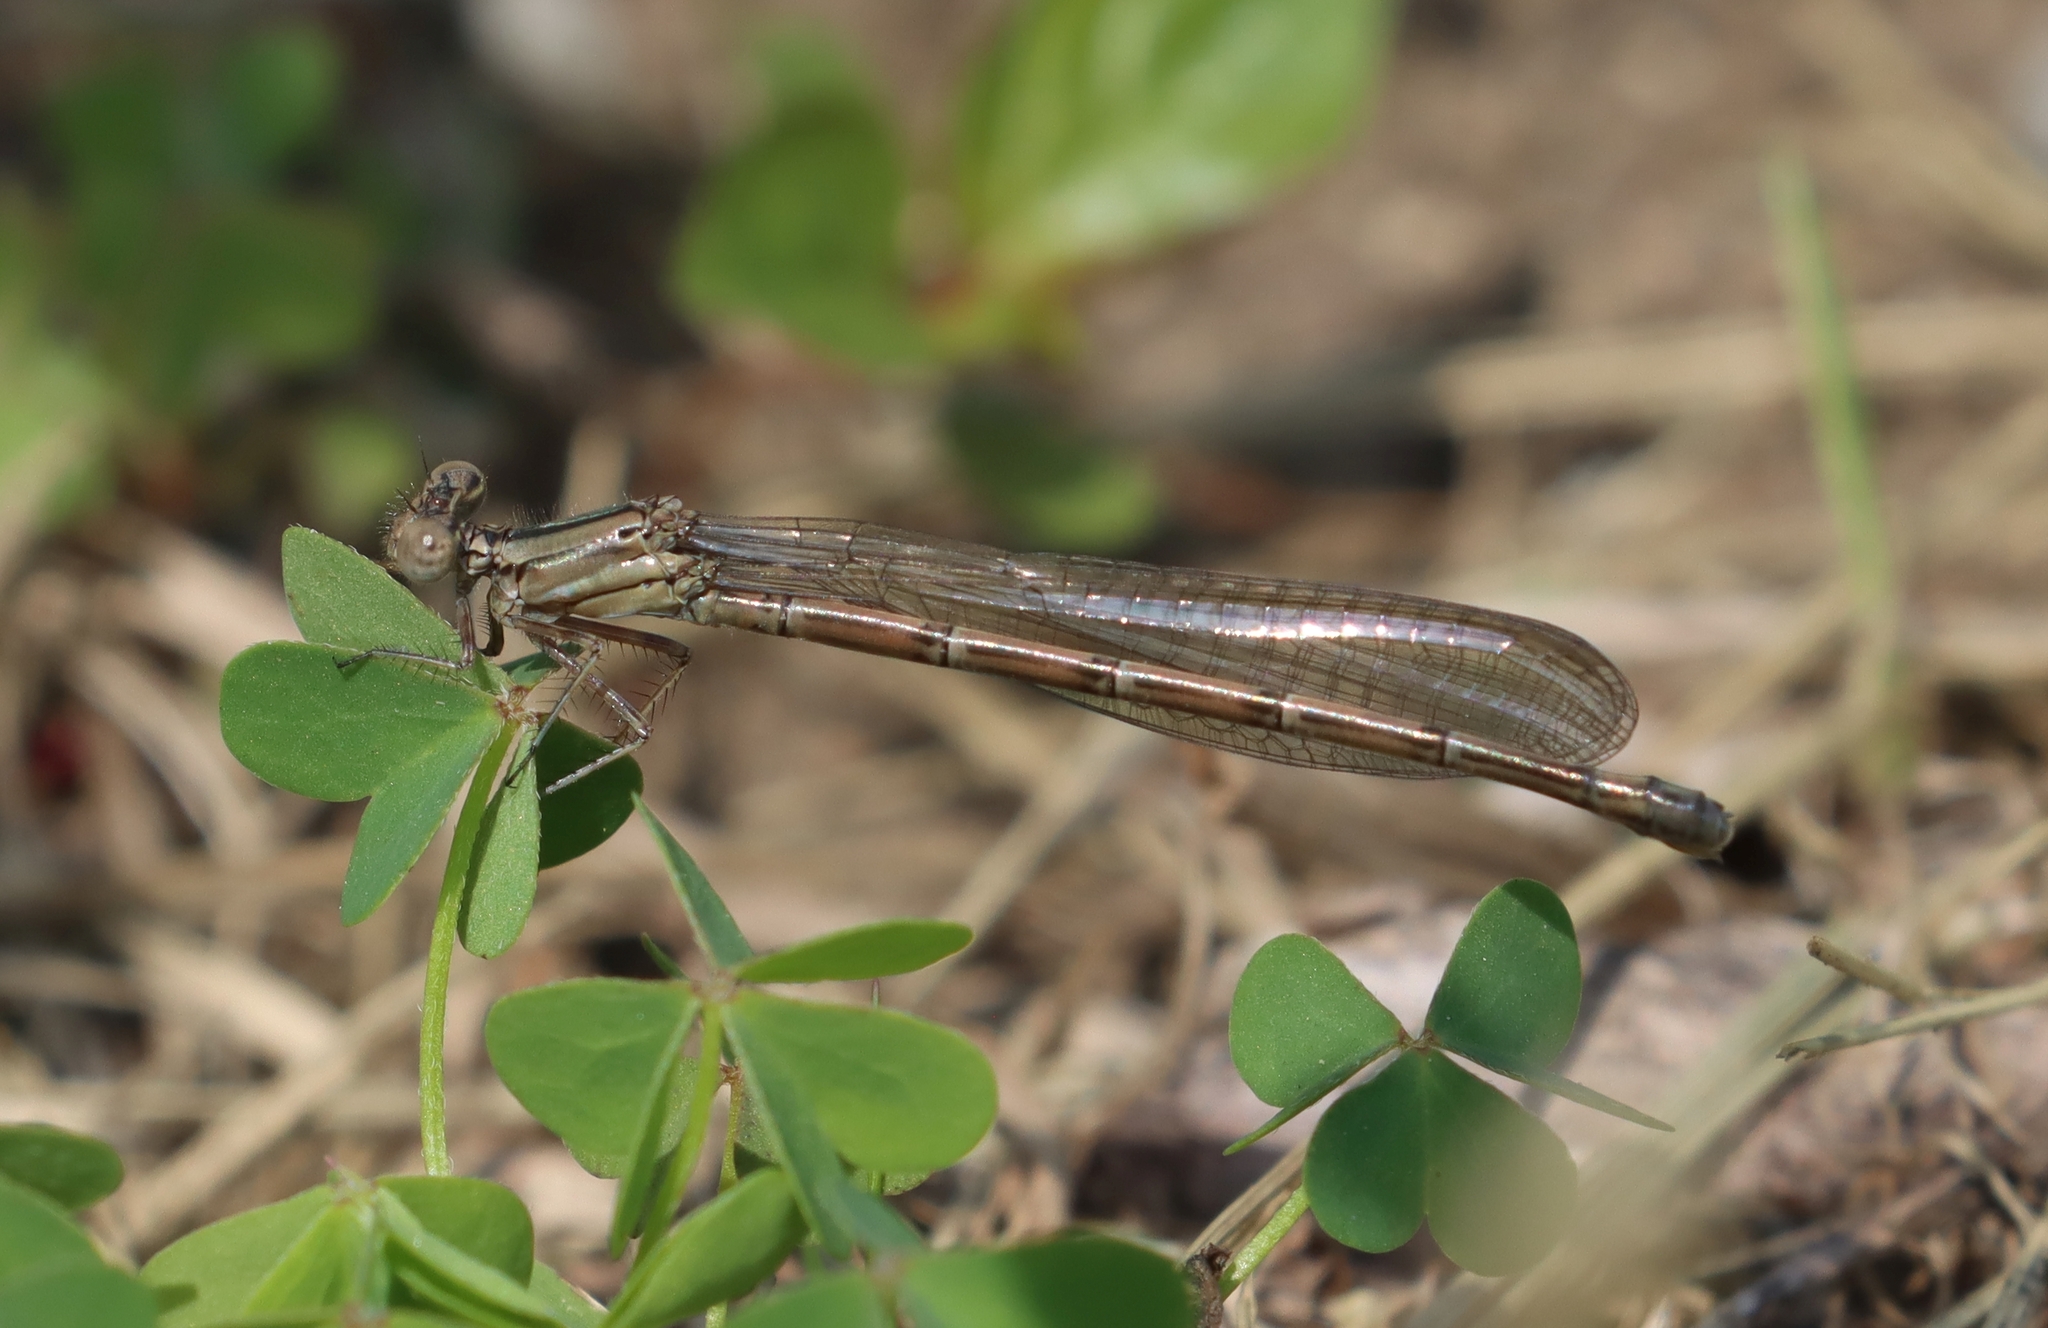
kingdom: Animalia
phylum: Arthropoda
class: Insecta
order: Odonata
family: Coenagrionidae
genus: Argia
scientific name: Argia fumipennis
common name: Variable dancer
